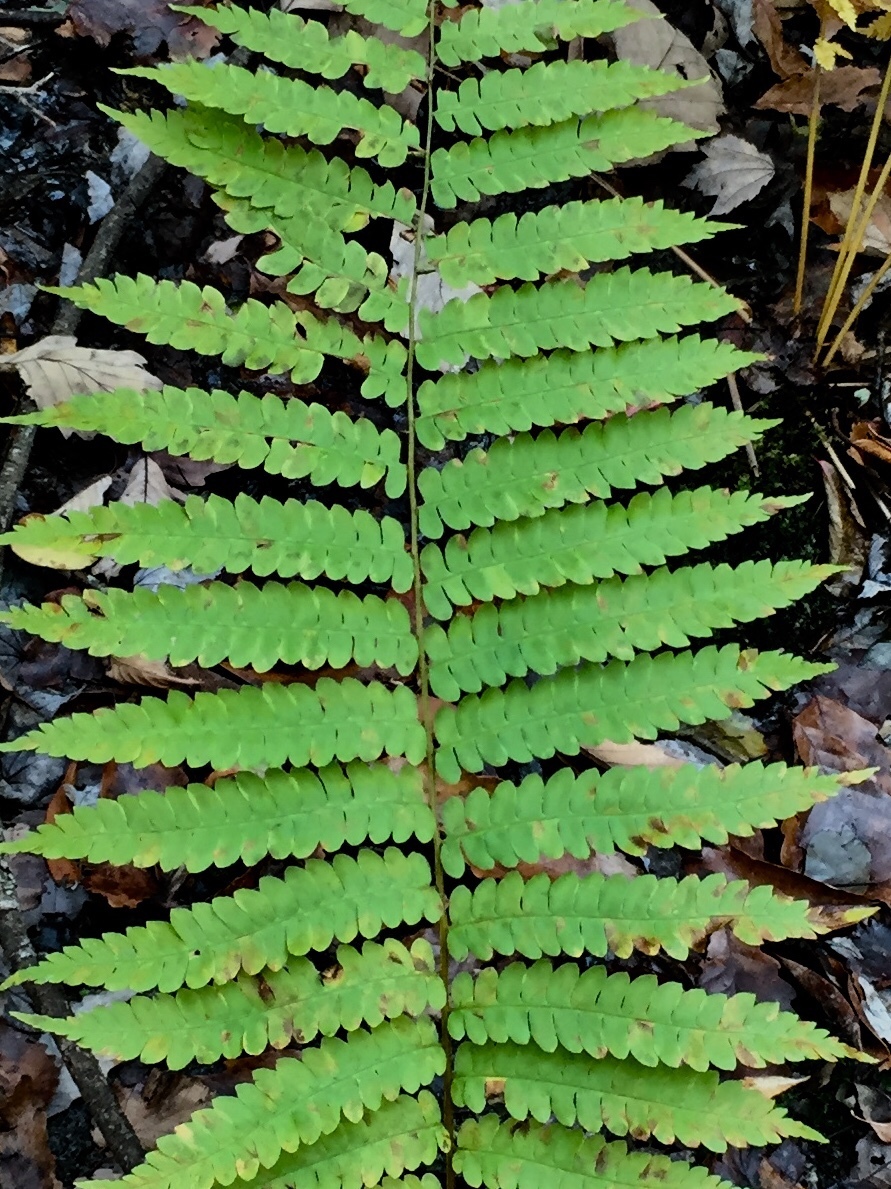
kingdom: Plantae
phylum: Tracheophyta
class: Polypodiopsida
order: Osmundales
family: Osmundaceae
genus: Osmundastrum
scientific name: Osmundastrum cinnamomeum
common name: Cinnamon fern
